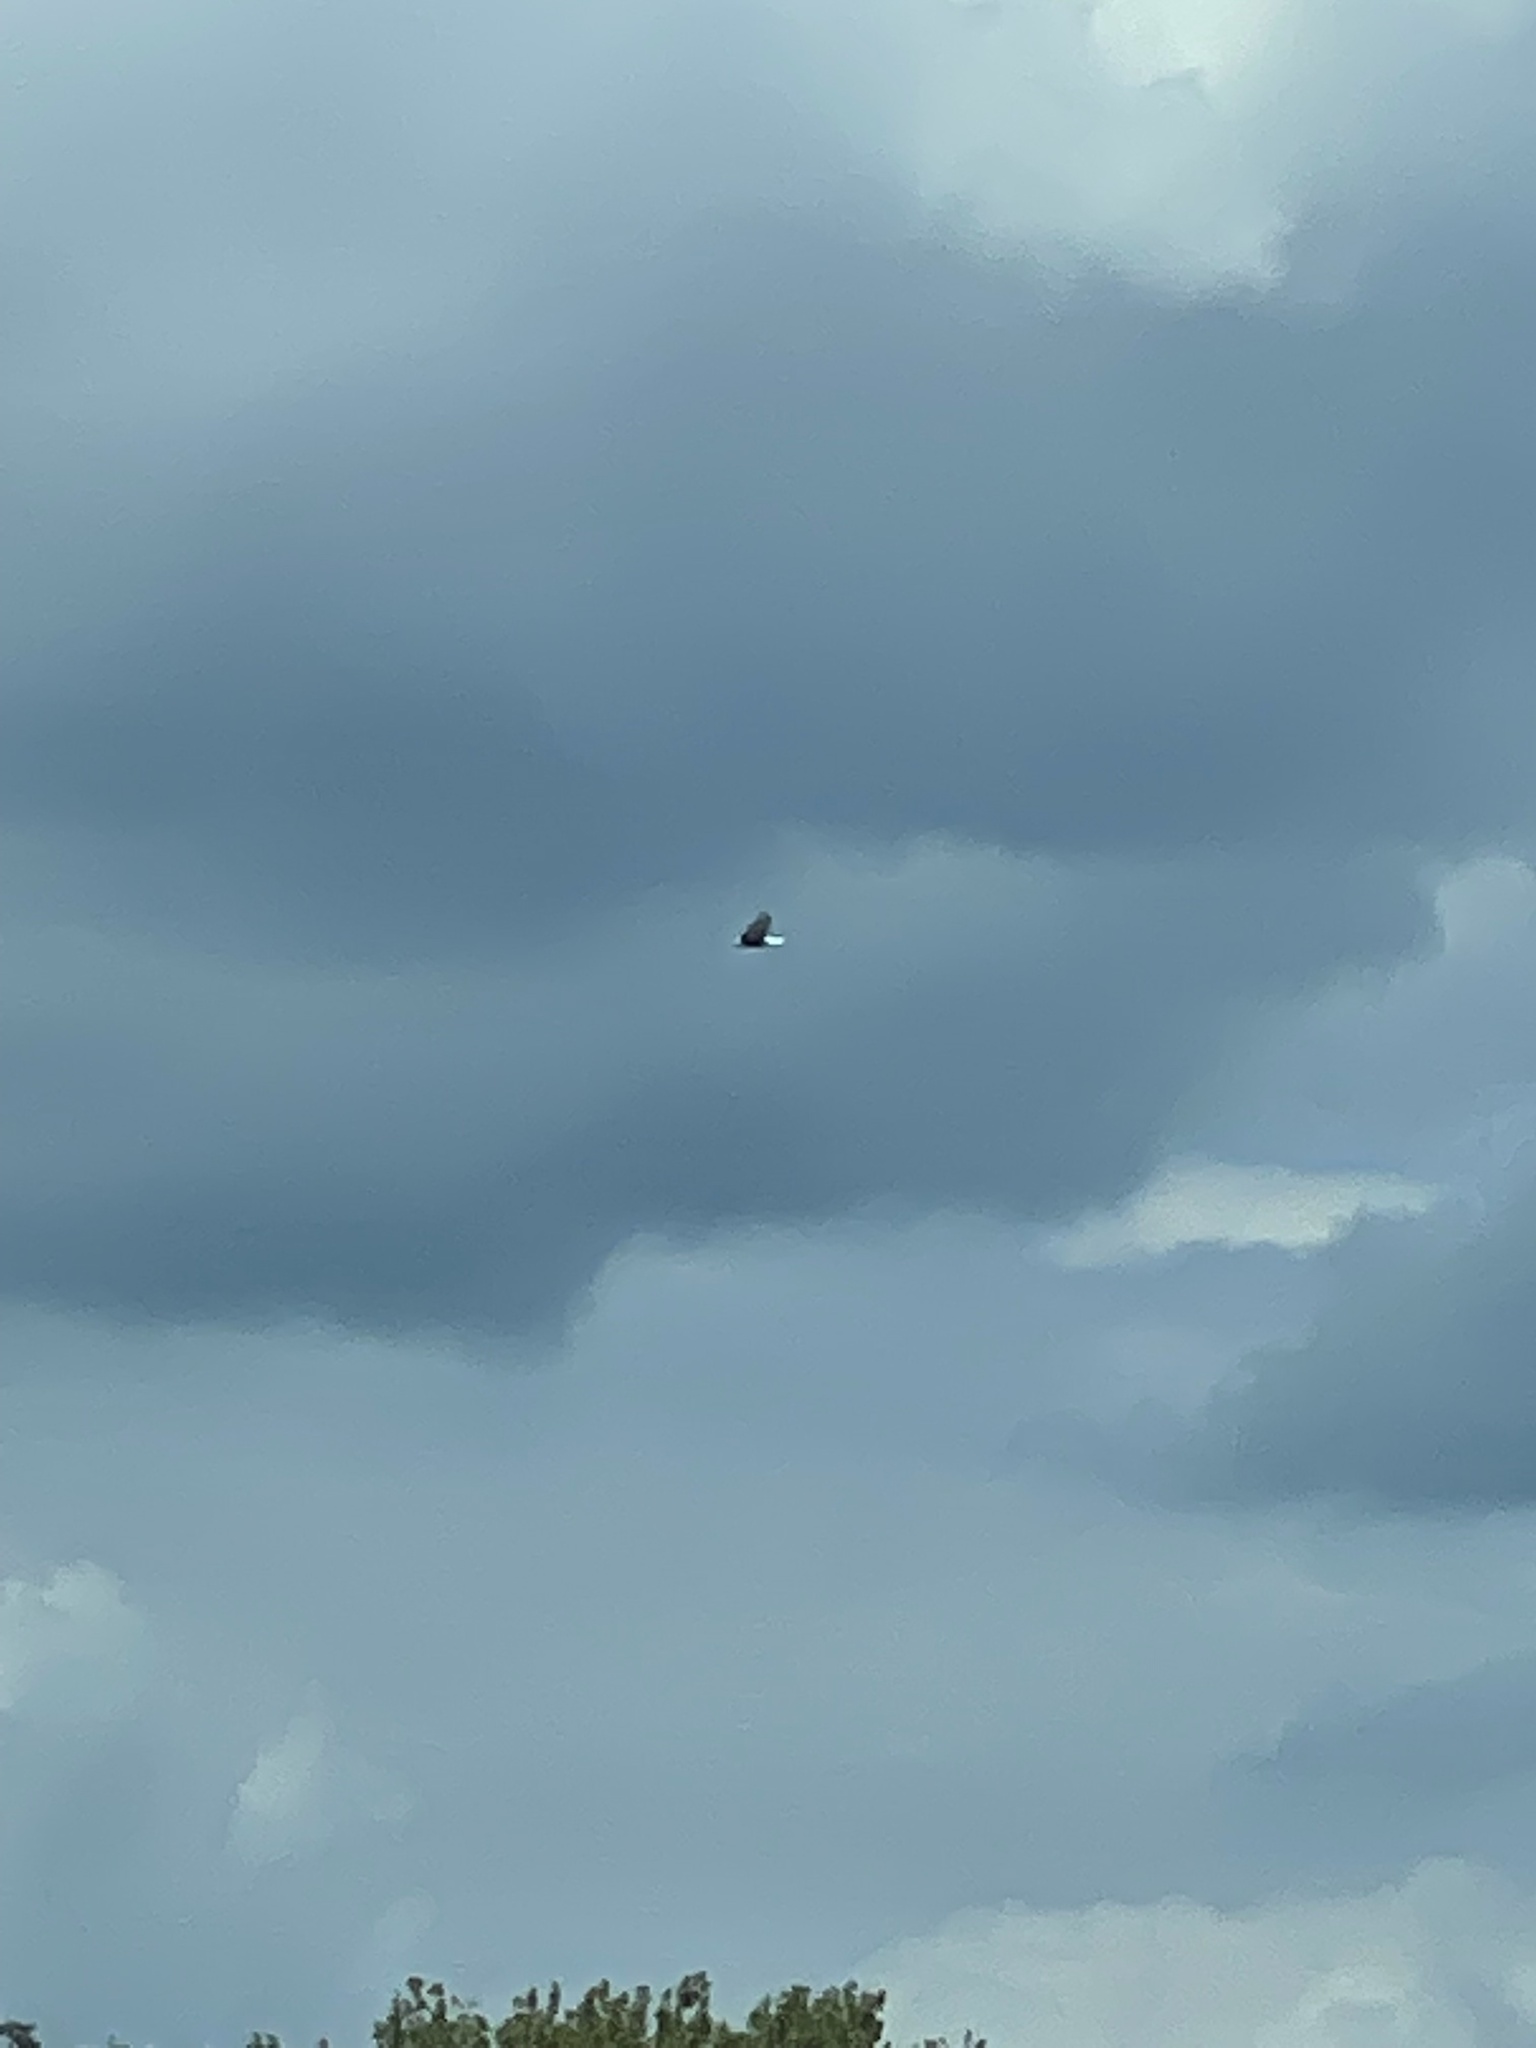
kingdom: Animalia
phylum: Chordata
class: Aves
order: Accipitriformes
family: Accipitridae
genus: Haliaeetus
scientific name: Haliaeetus leucocephalus
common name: Bald eagle
